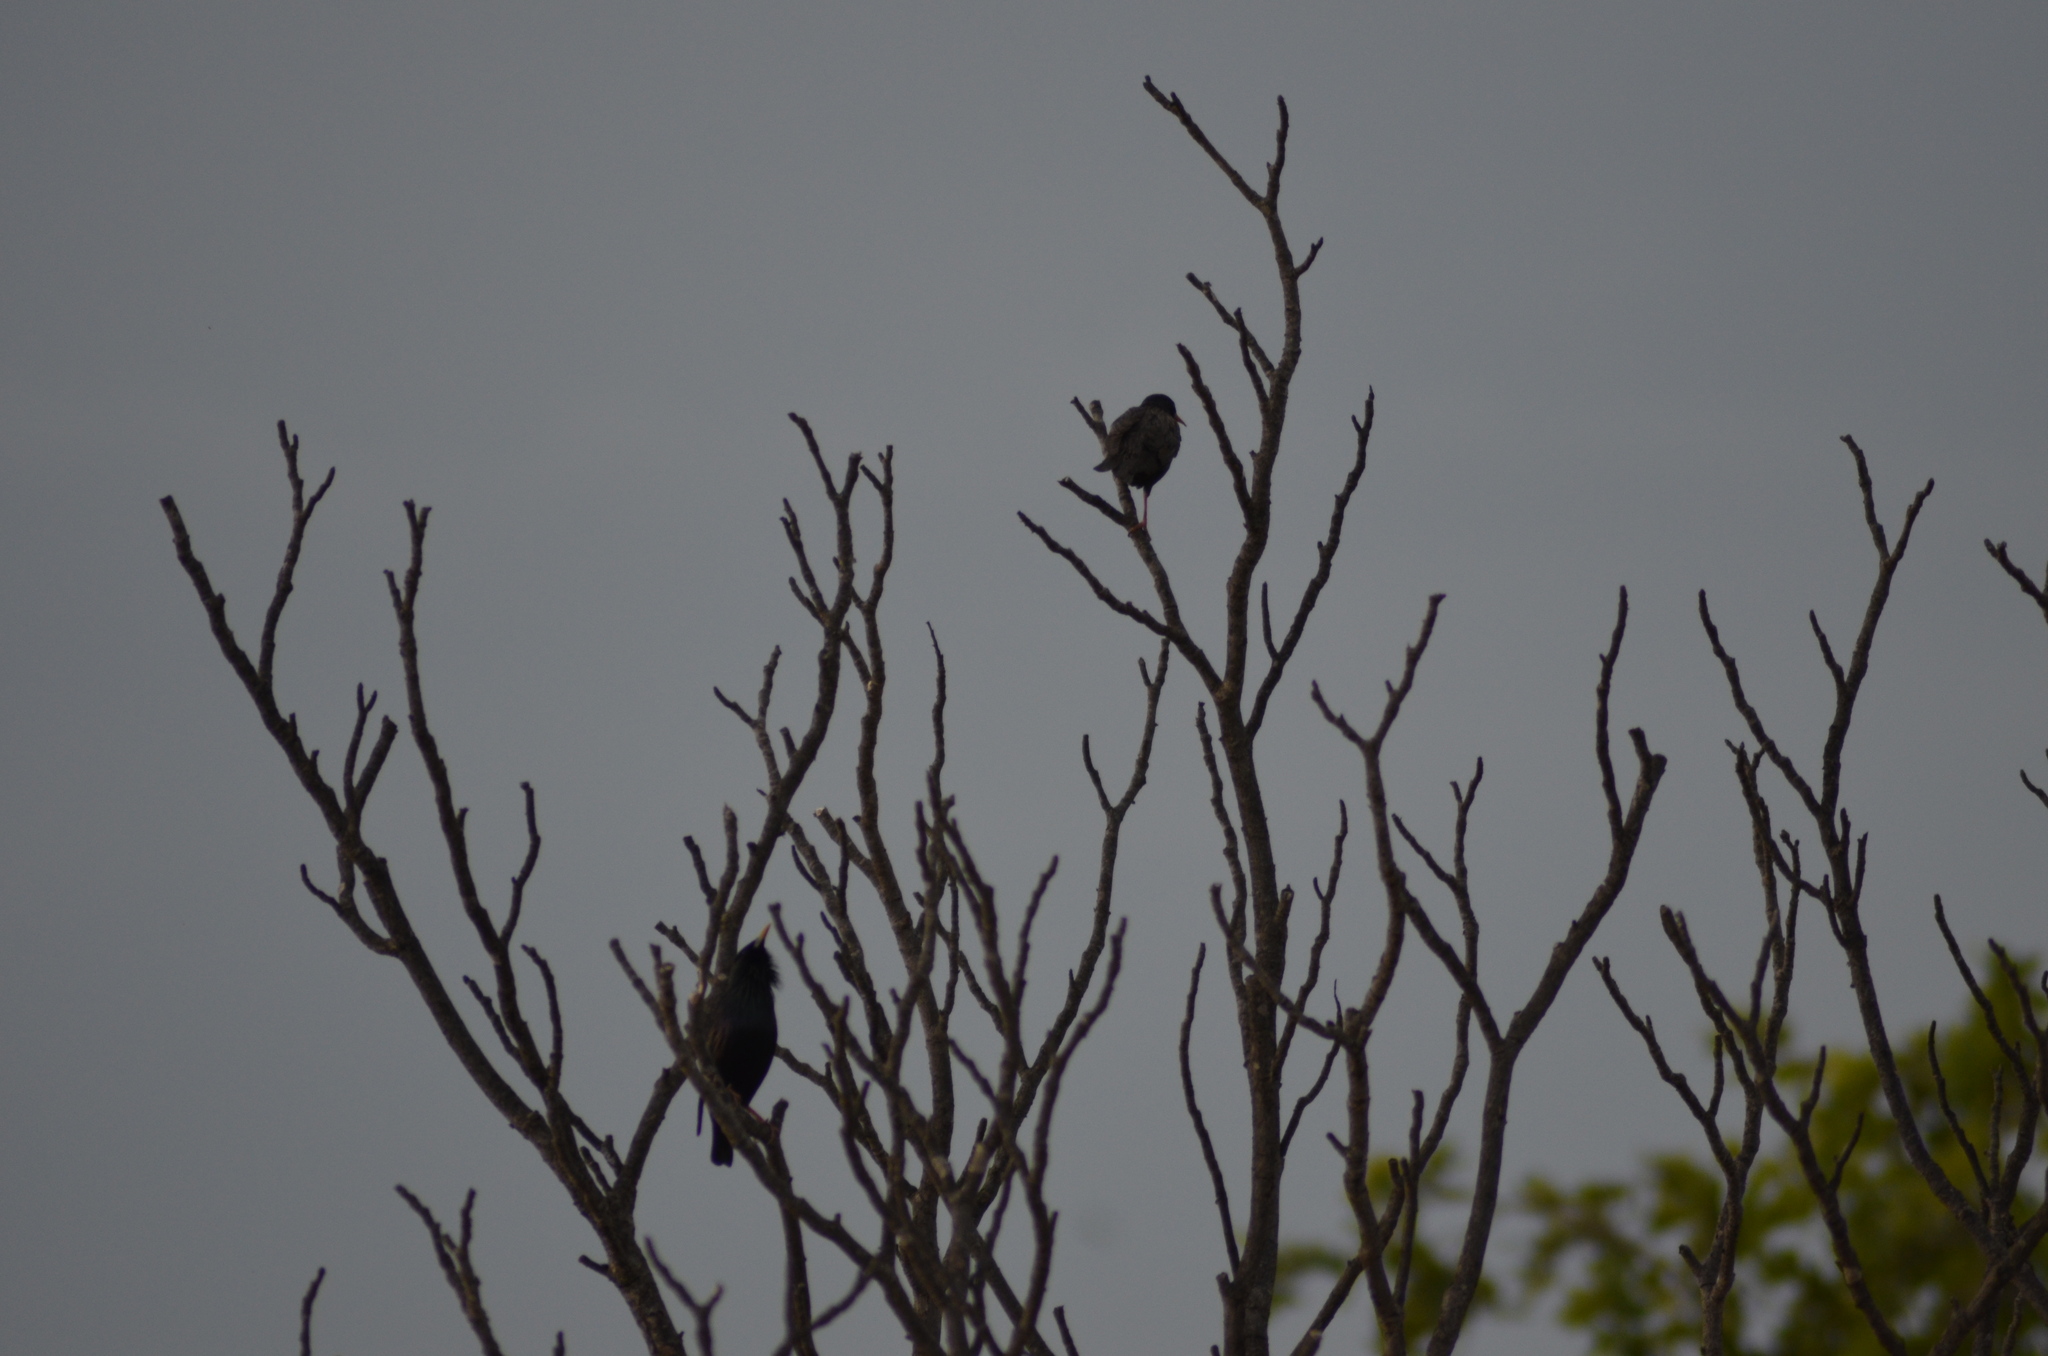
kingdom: Animalia
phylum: Chordata
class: Aves
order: Passeriformes
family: Sturnidae
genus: Sturnus
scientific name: Sturnus vulgaris
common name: Common starling
